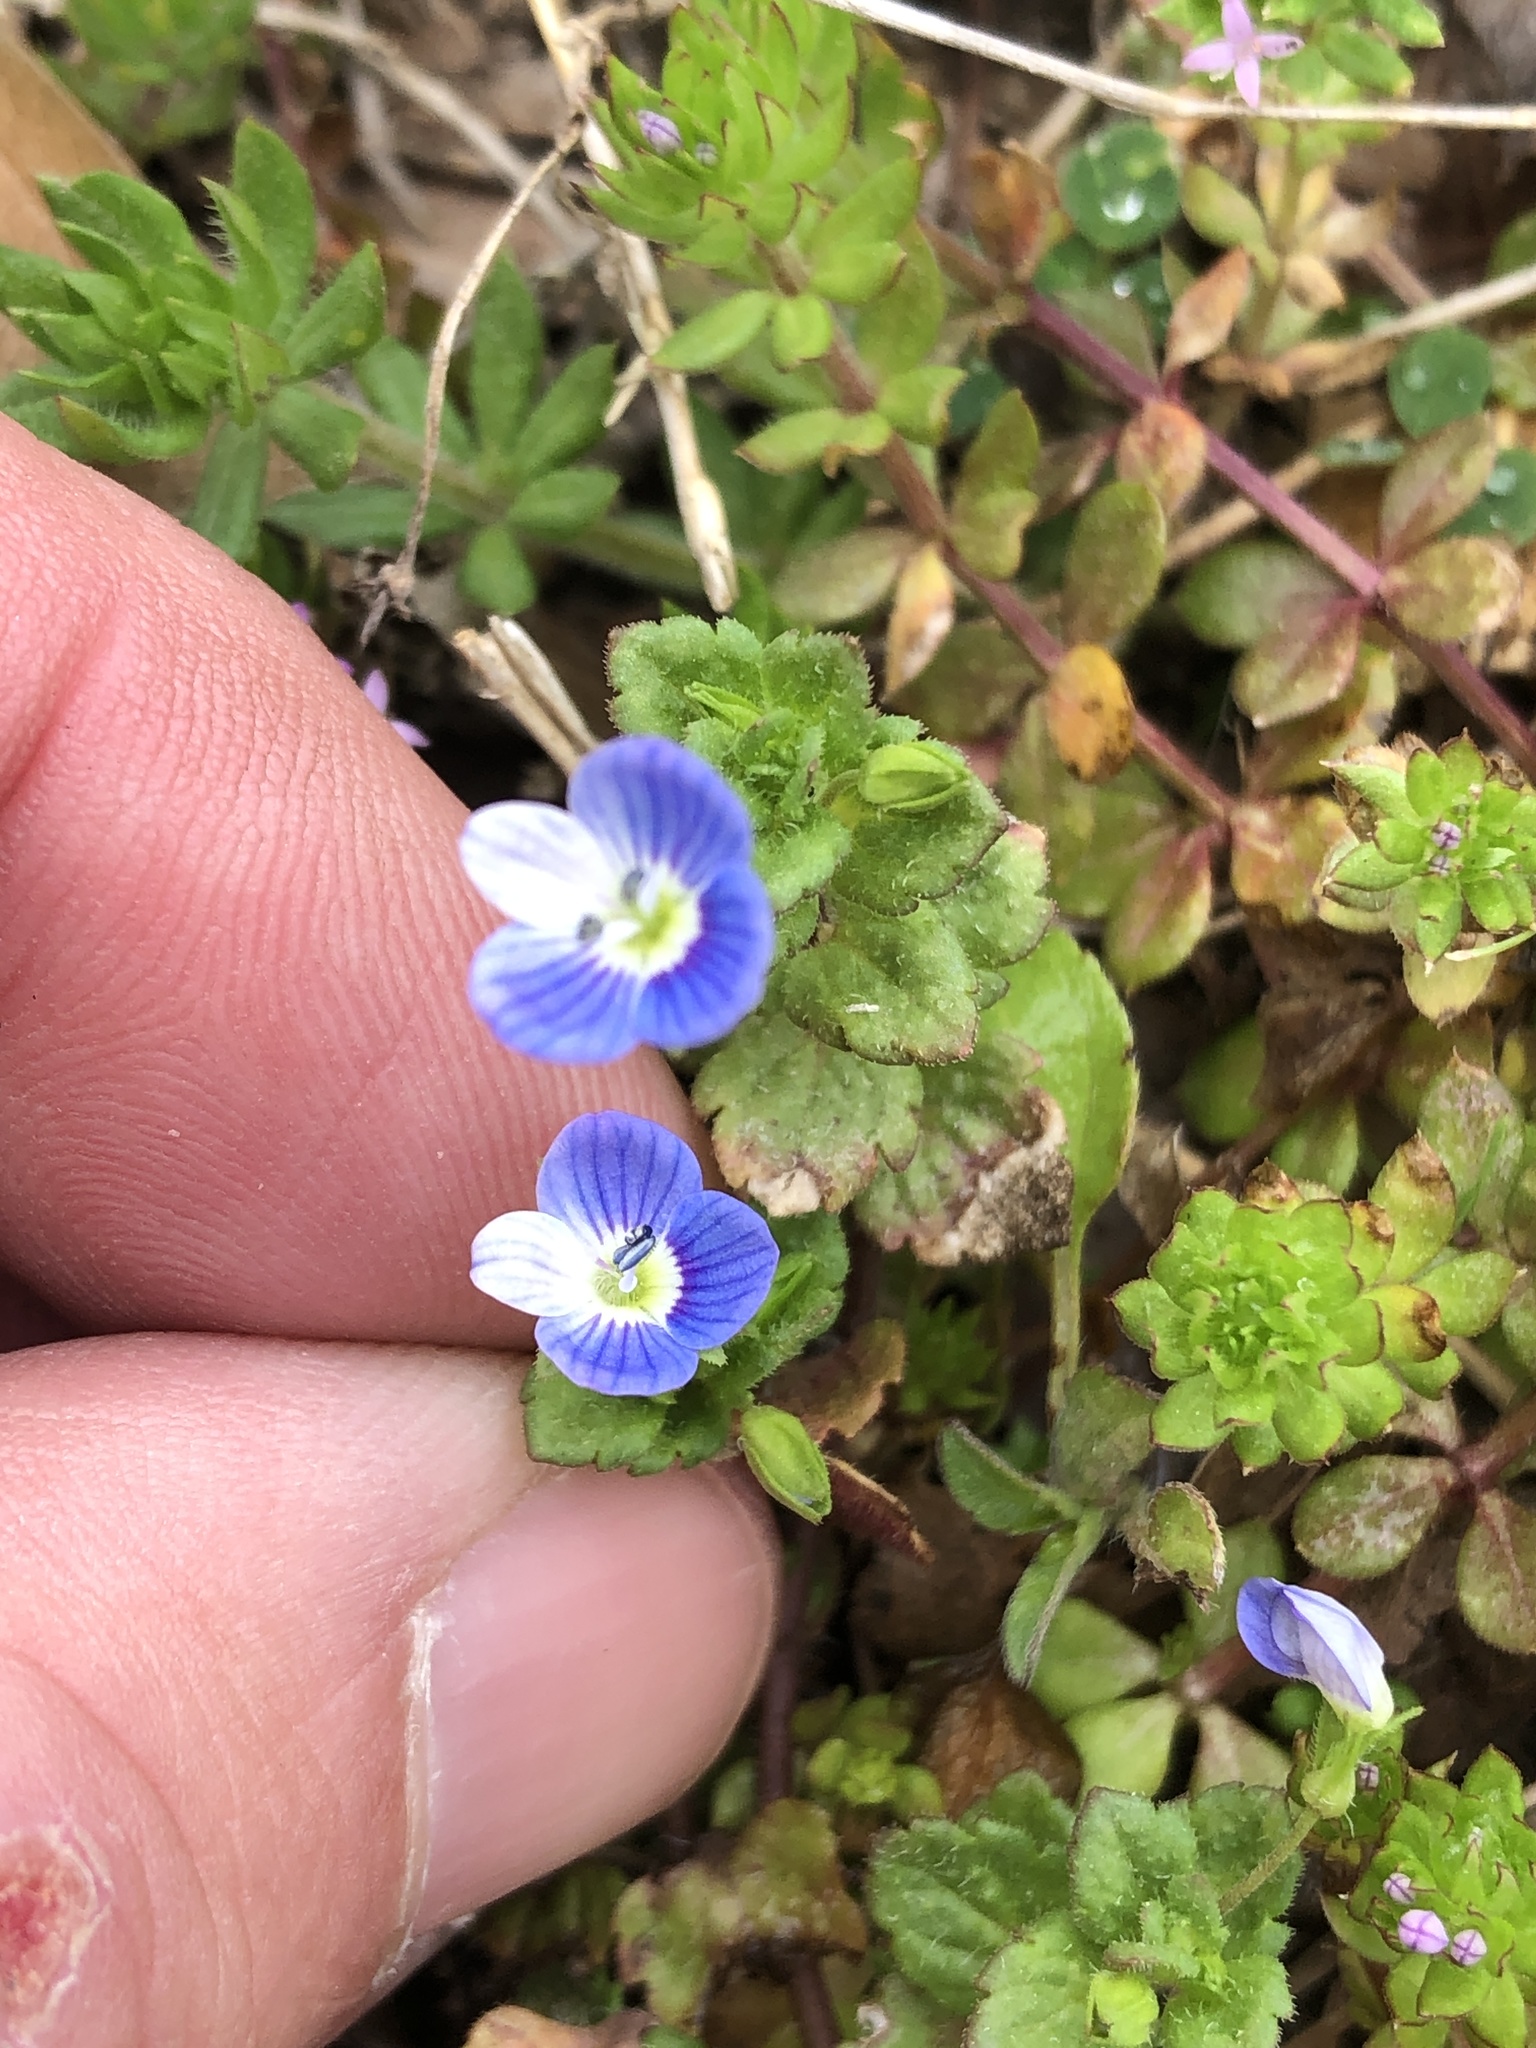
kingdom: Plantae
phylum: Tracheophyta
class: Magnoliopsida
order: Lamiales
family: Plantaginaceae
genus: Veronica
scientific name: Veronica persica
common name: Common field-speedwell
